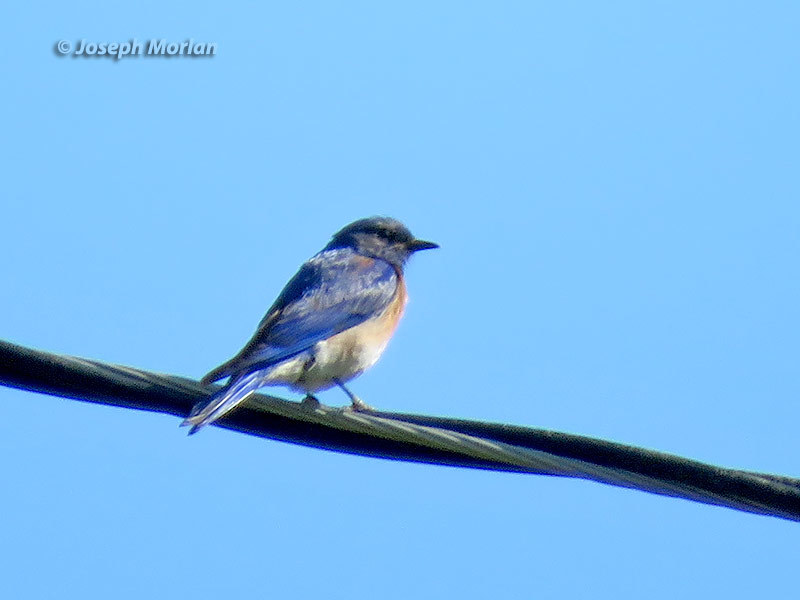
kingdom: Animalia
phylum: Chordata
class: Aves
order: Passeriformes
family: Turdidae
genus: Sialia
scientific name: Sialia mexicana
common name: Western bluebird
